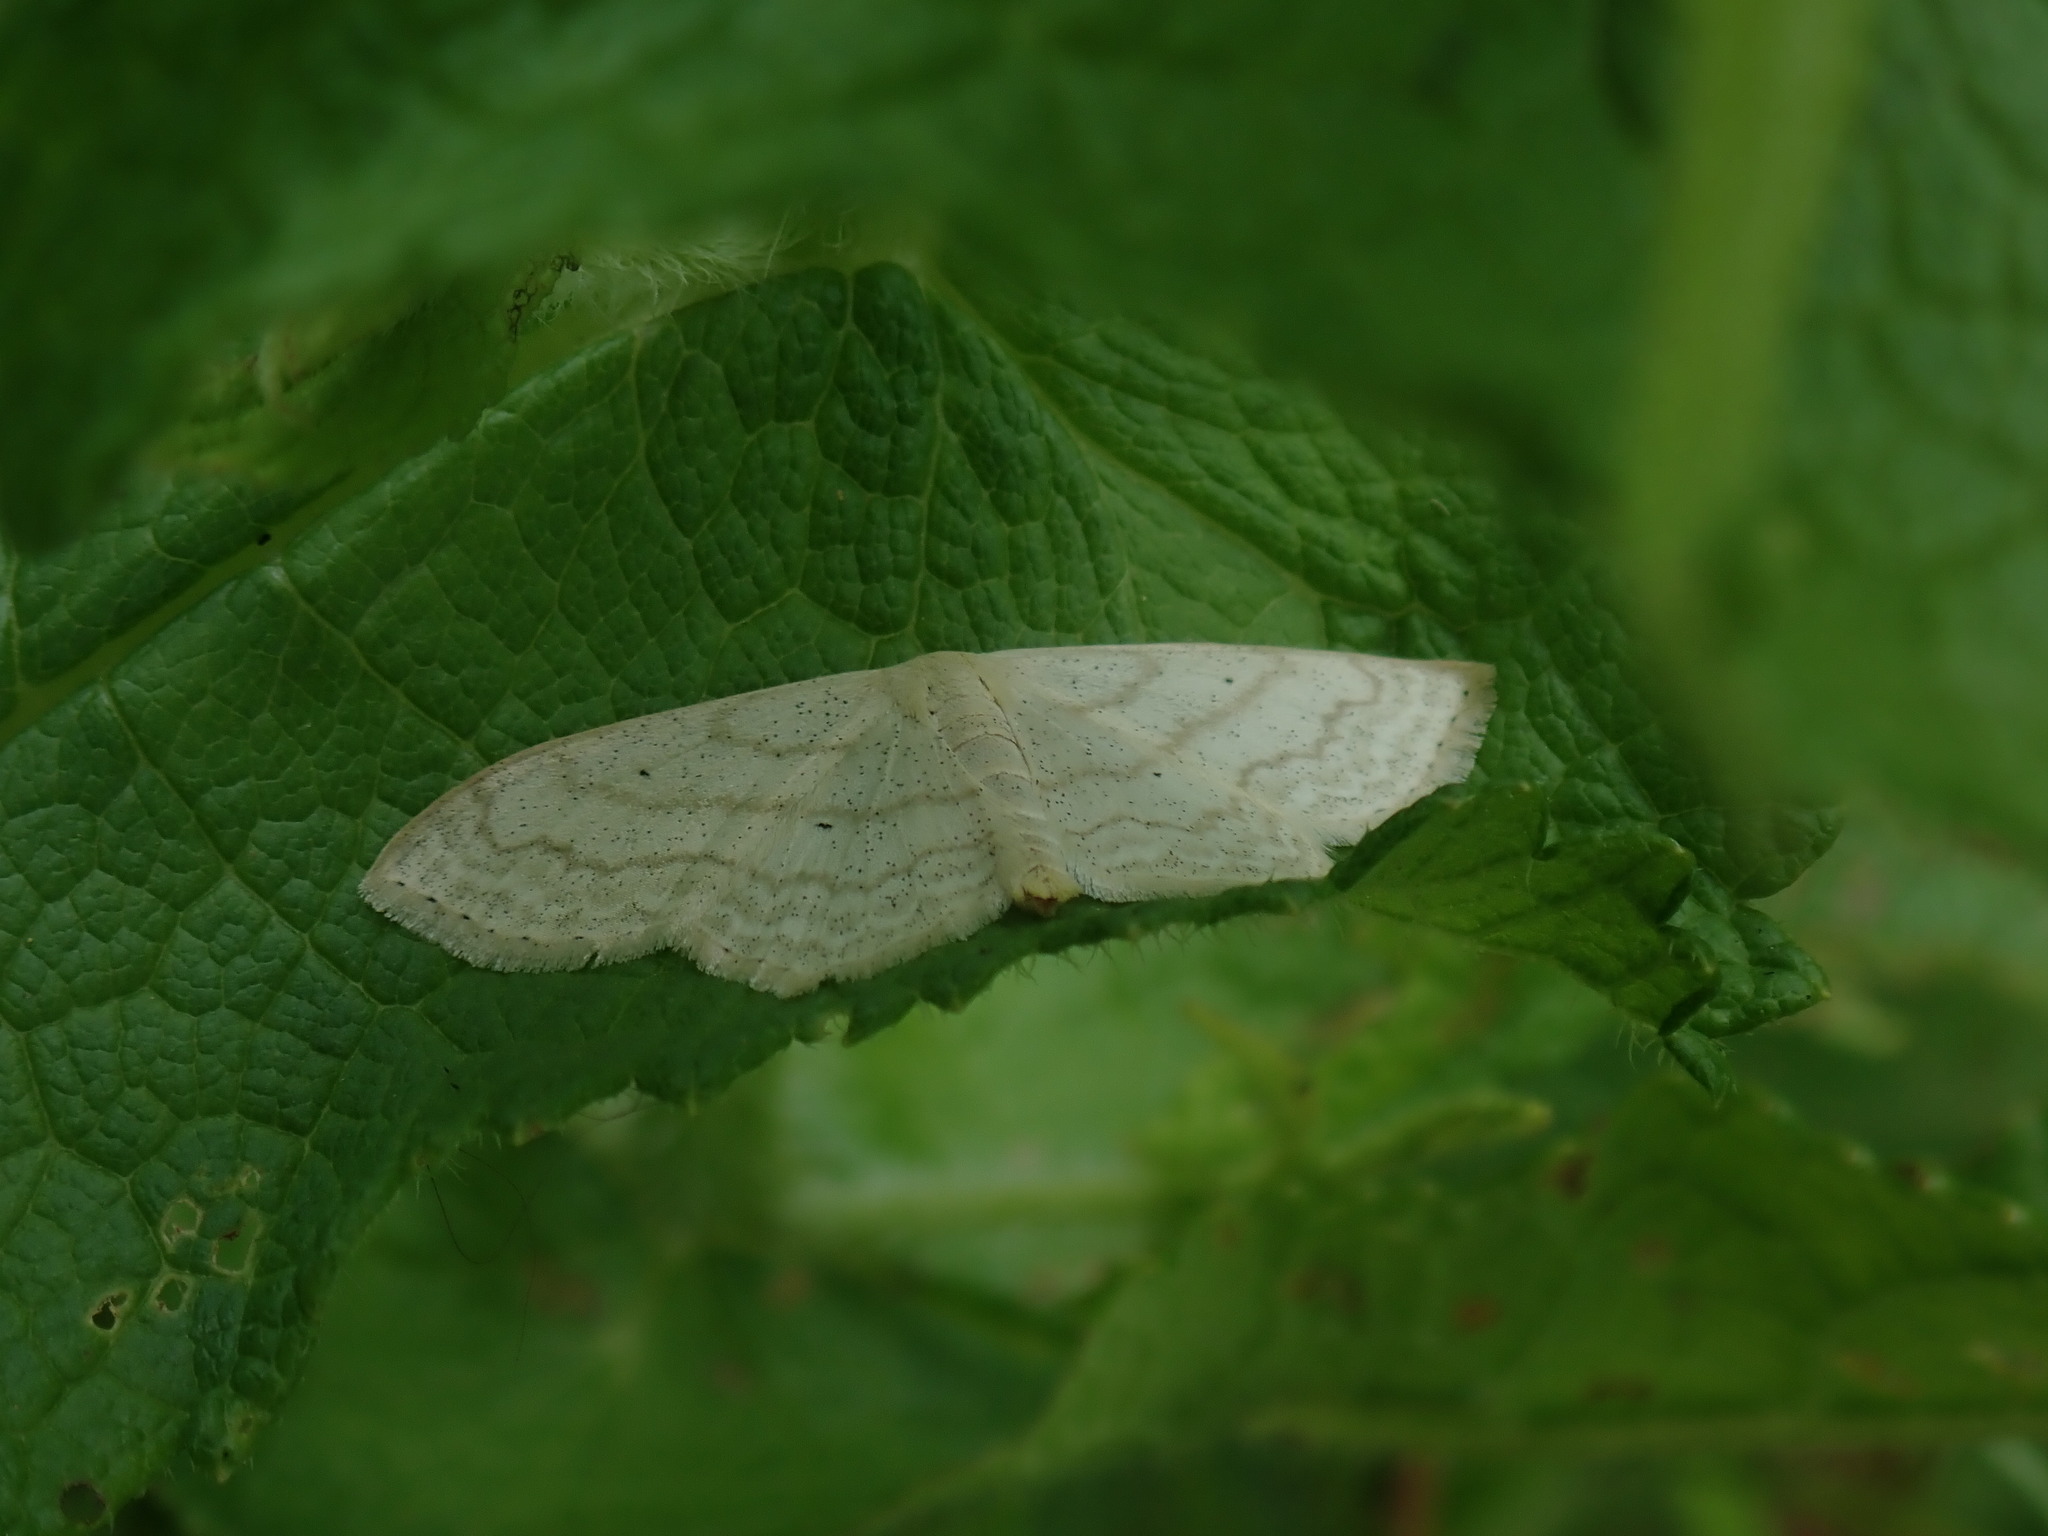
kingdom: Animalia
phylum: Arthropoda
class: Insecta
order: Lepidoptera
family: Geometridae
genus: Scopula
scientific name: Scopula limboundata
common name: Large lace border
